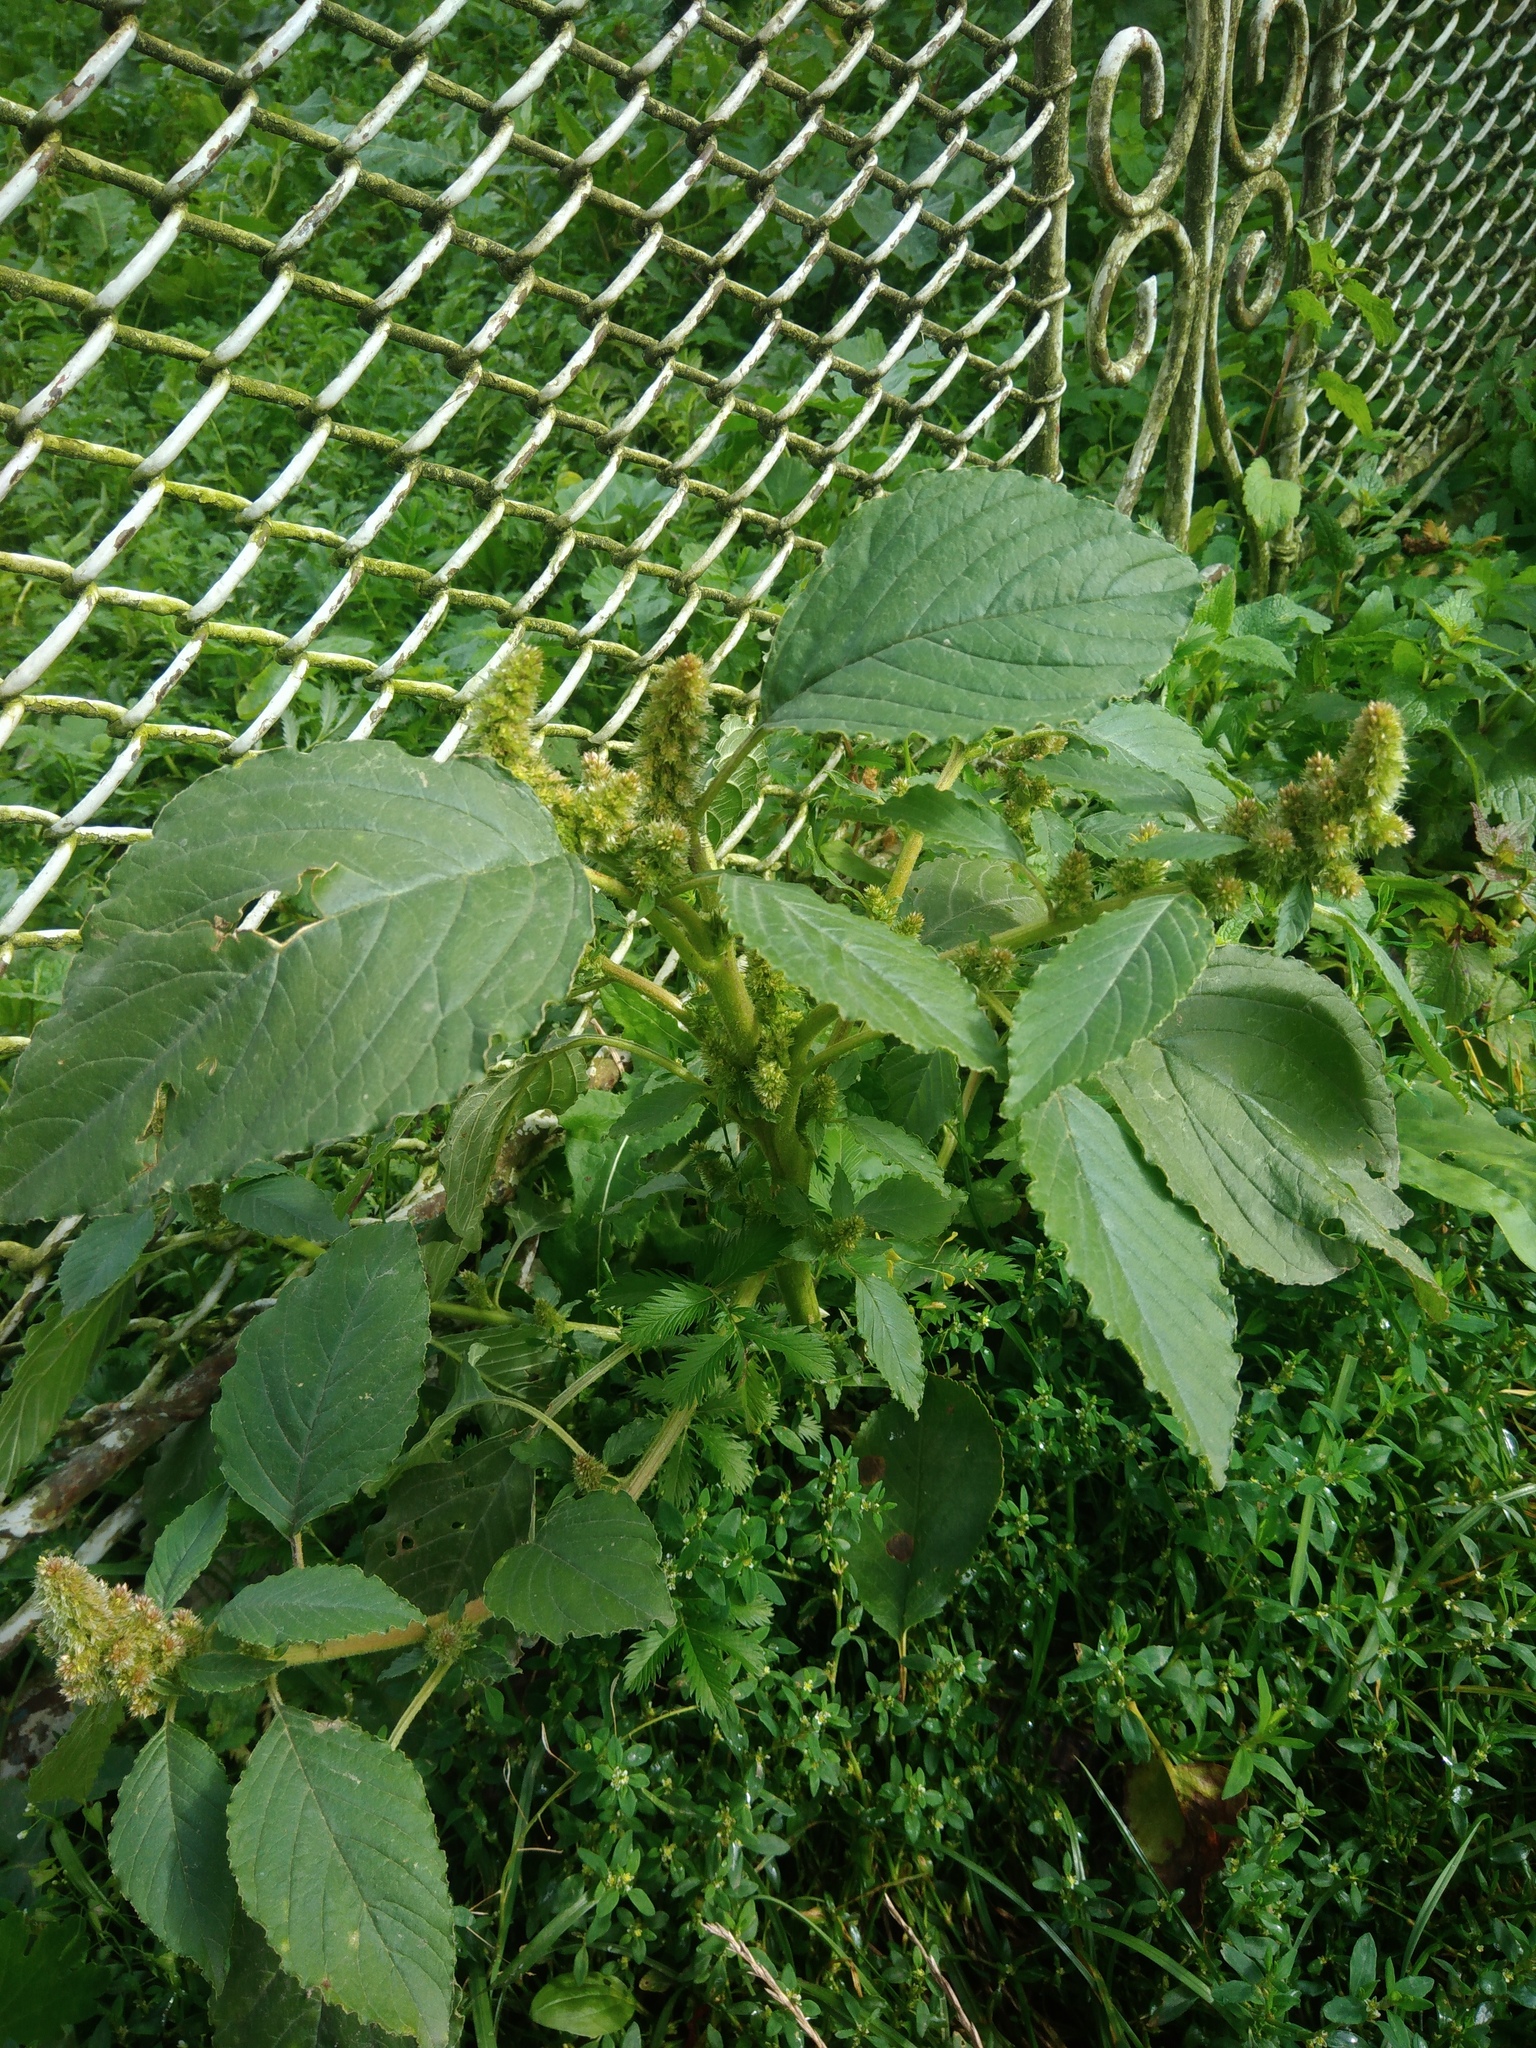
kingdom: Plantae
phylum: Tracheophyta
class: Magnoliopsida
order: Caryophyllales
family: Amaranthaceae
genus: Amaranthus
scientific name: Amaranthus retroflexus
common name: Redroot amaranth
